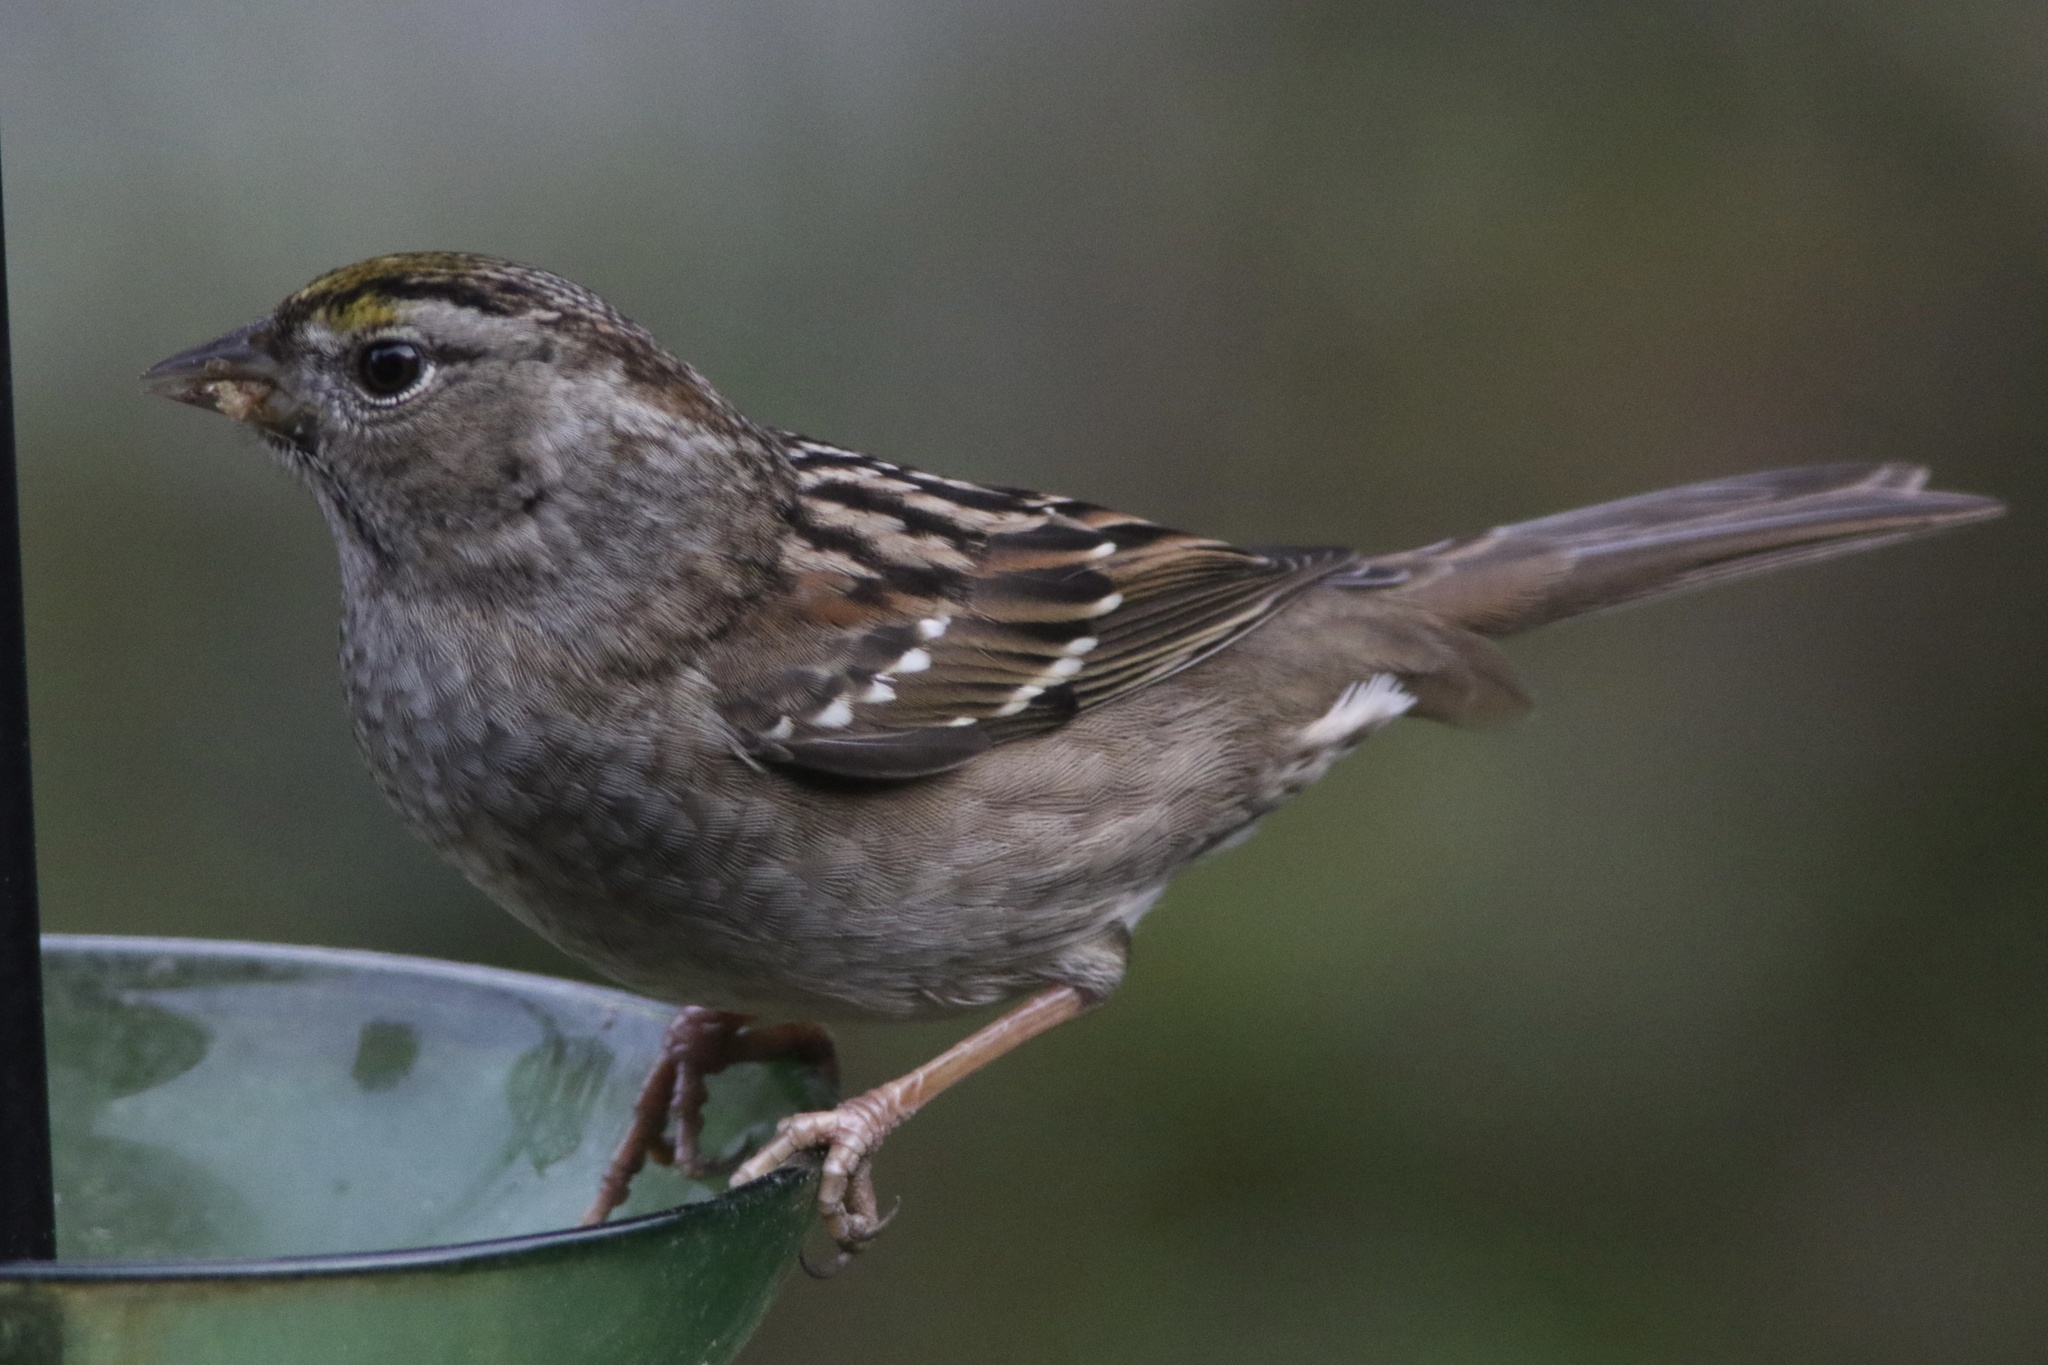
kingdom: Animalia
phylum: Chordata
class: Aves
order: Passeriformes
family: Passerellidae
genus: Zonotrichia
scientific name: Zonotrichia atricapilla
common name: Golden-crowned sparrow
